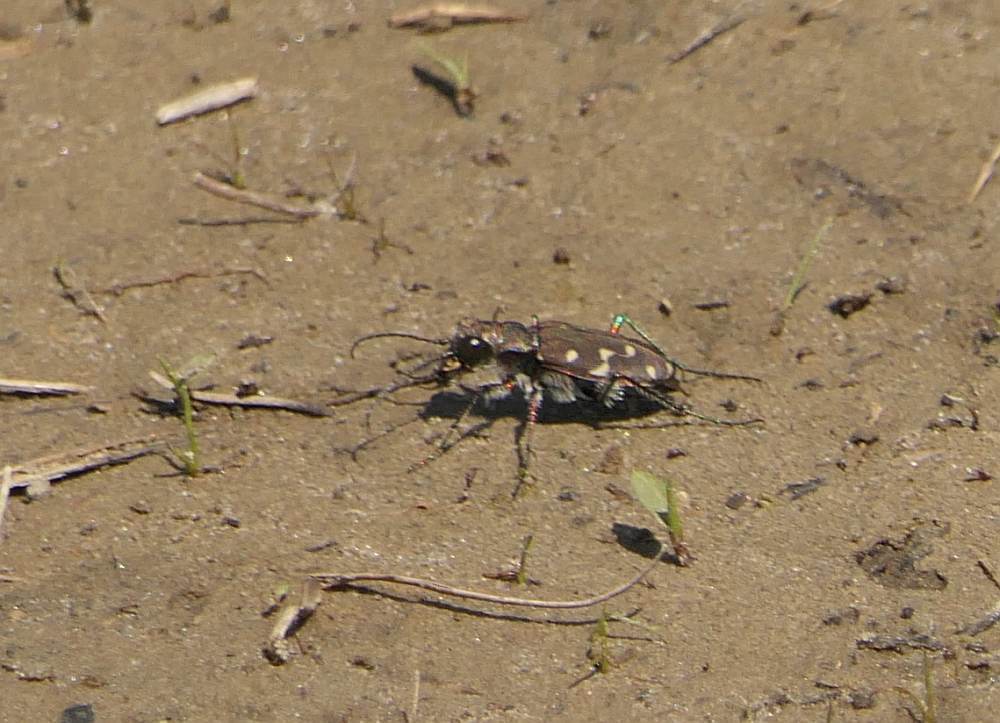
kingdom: Animalia
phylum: Arthropoda
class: Insecta
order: Coleoptera
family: Carabidae
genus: Cicindela
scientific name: Cicindela duodecimguttata
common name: Twelve-spotted tiger beetle
